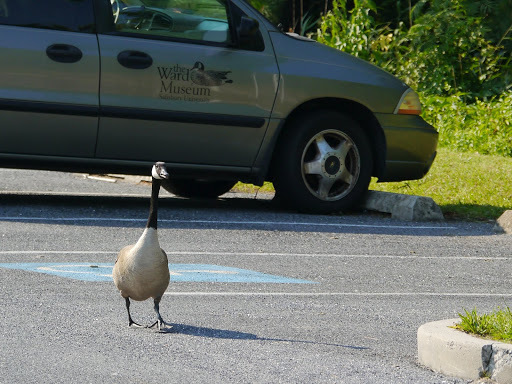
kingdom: Animalia
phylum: Chordata
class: Aves
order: Anseriformes
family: Anatidae
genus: Branta
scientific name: Branta canadensis
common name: Canada goose
